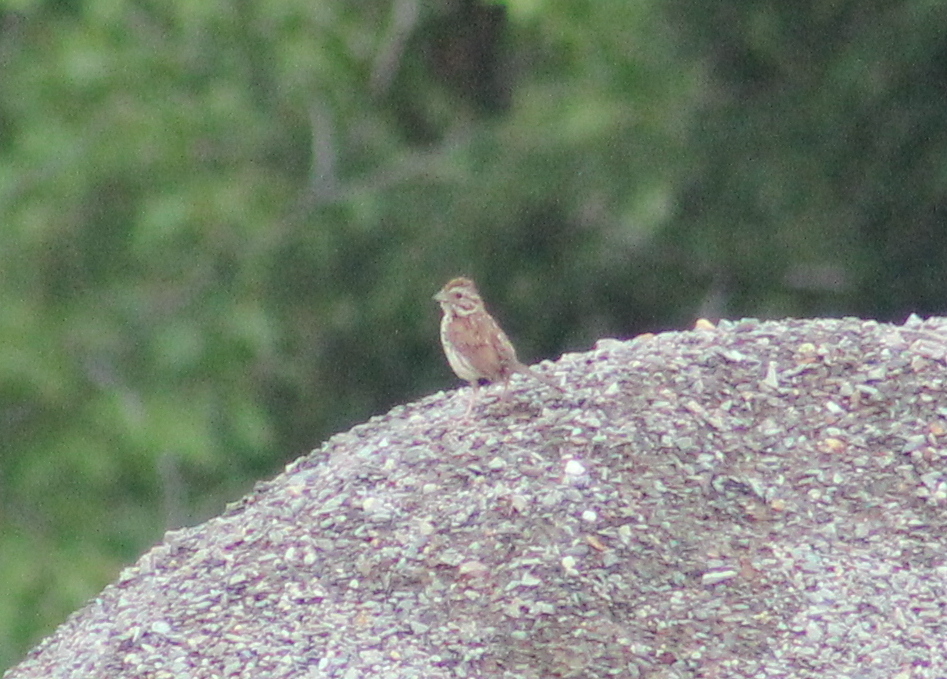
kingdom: Animalia
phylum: Chordata
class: Aves
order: Passeriformes
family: Passerellidae
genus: Melospiza
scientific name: Melospiza melodia
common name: Song sparrow
